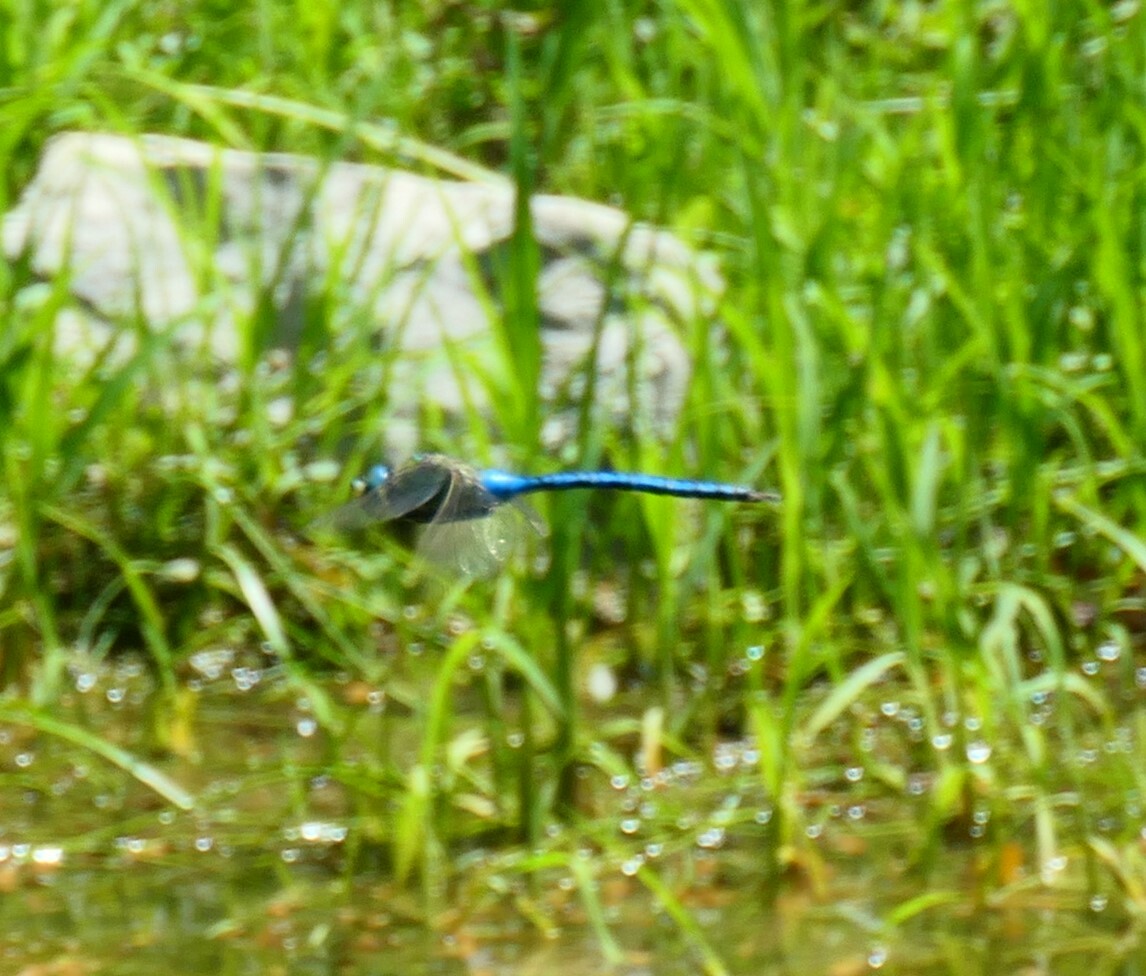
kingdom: Animalia
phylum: Arthropoda
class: Insecta
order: Odonata
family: Aeshnidae
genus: Anax
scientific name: Anax imperator
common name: Emperor dragonfly
